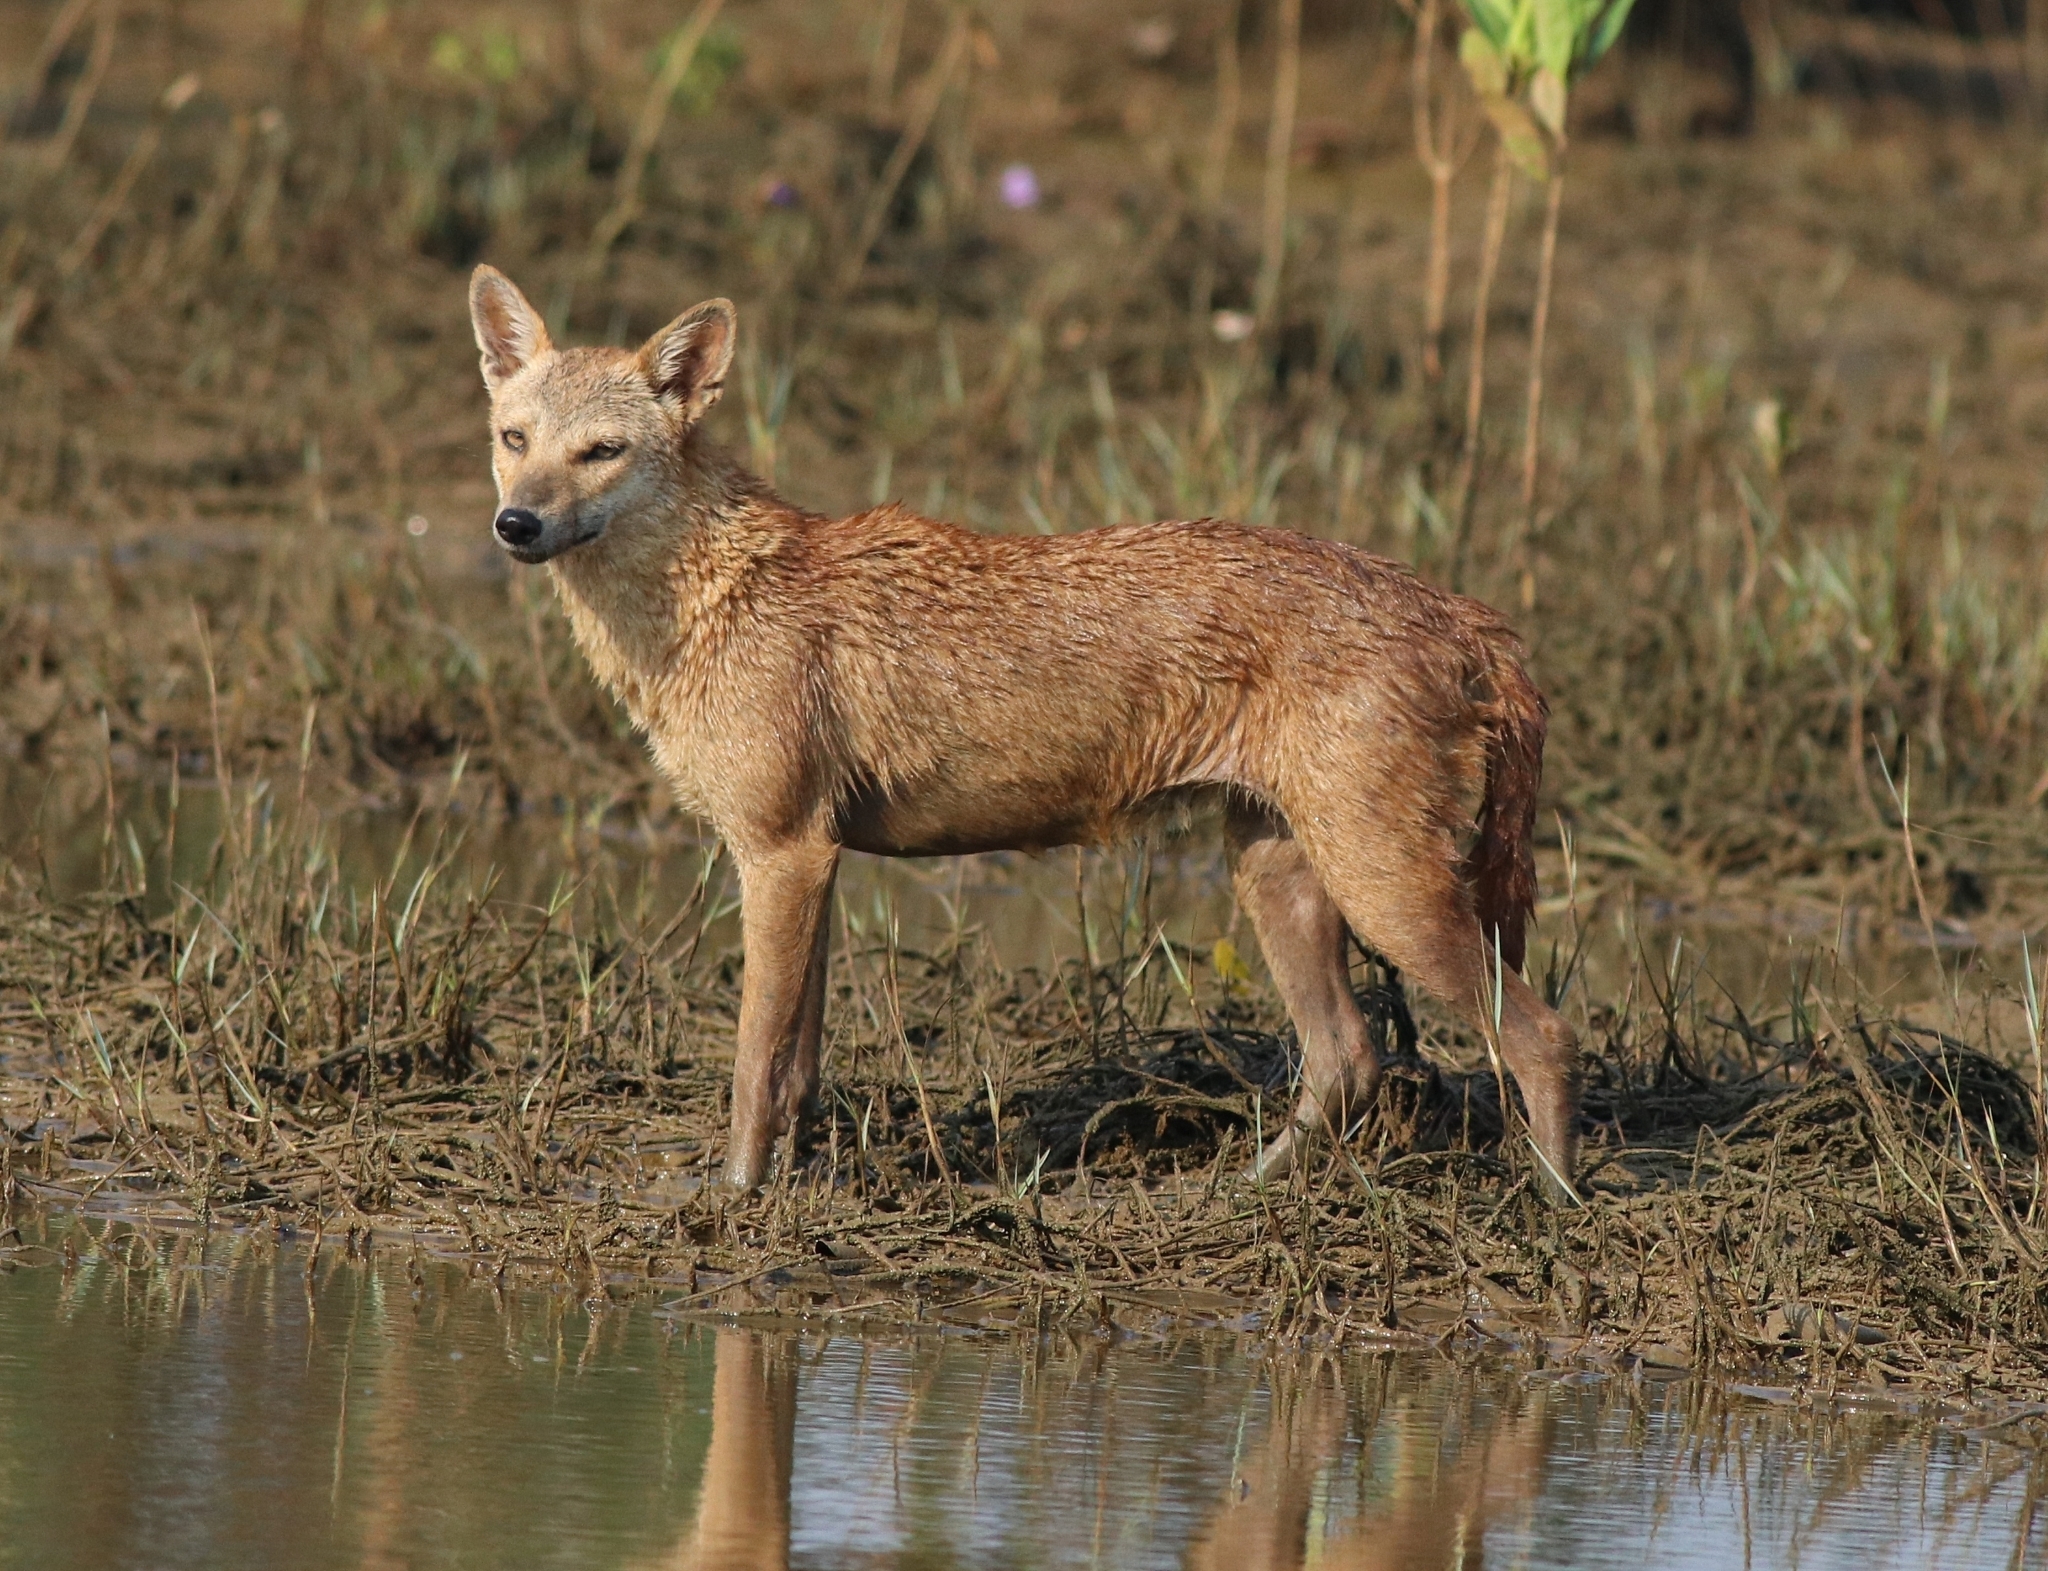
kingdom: Animalia
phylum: Chordata
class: Mammalia
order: Carnivora
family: Canidae
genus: Canis
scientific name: Canis aureus
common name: Golden jackal
